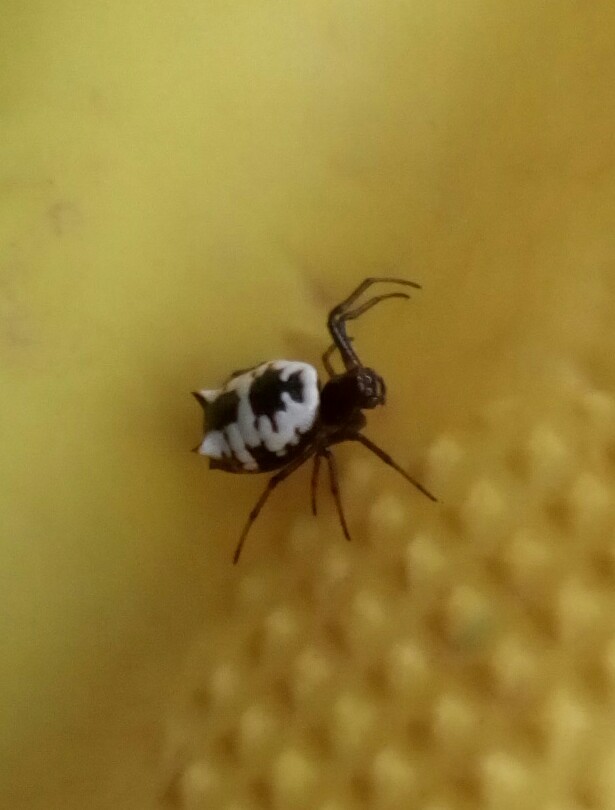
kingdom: Animalia
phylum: Arthropoda
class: Arachnida
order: Araneae
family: Araneidae
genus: Micrathena
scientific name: Micrathena mitrata
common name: Orb weavers
